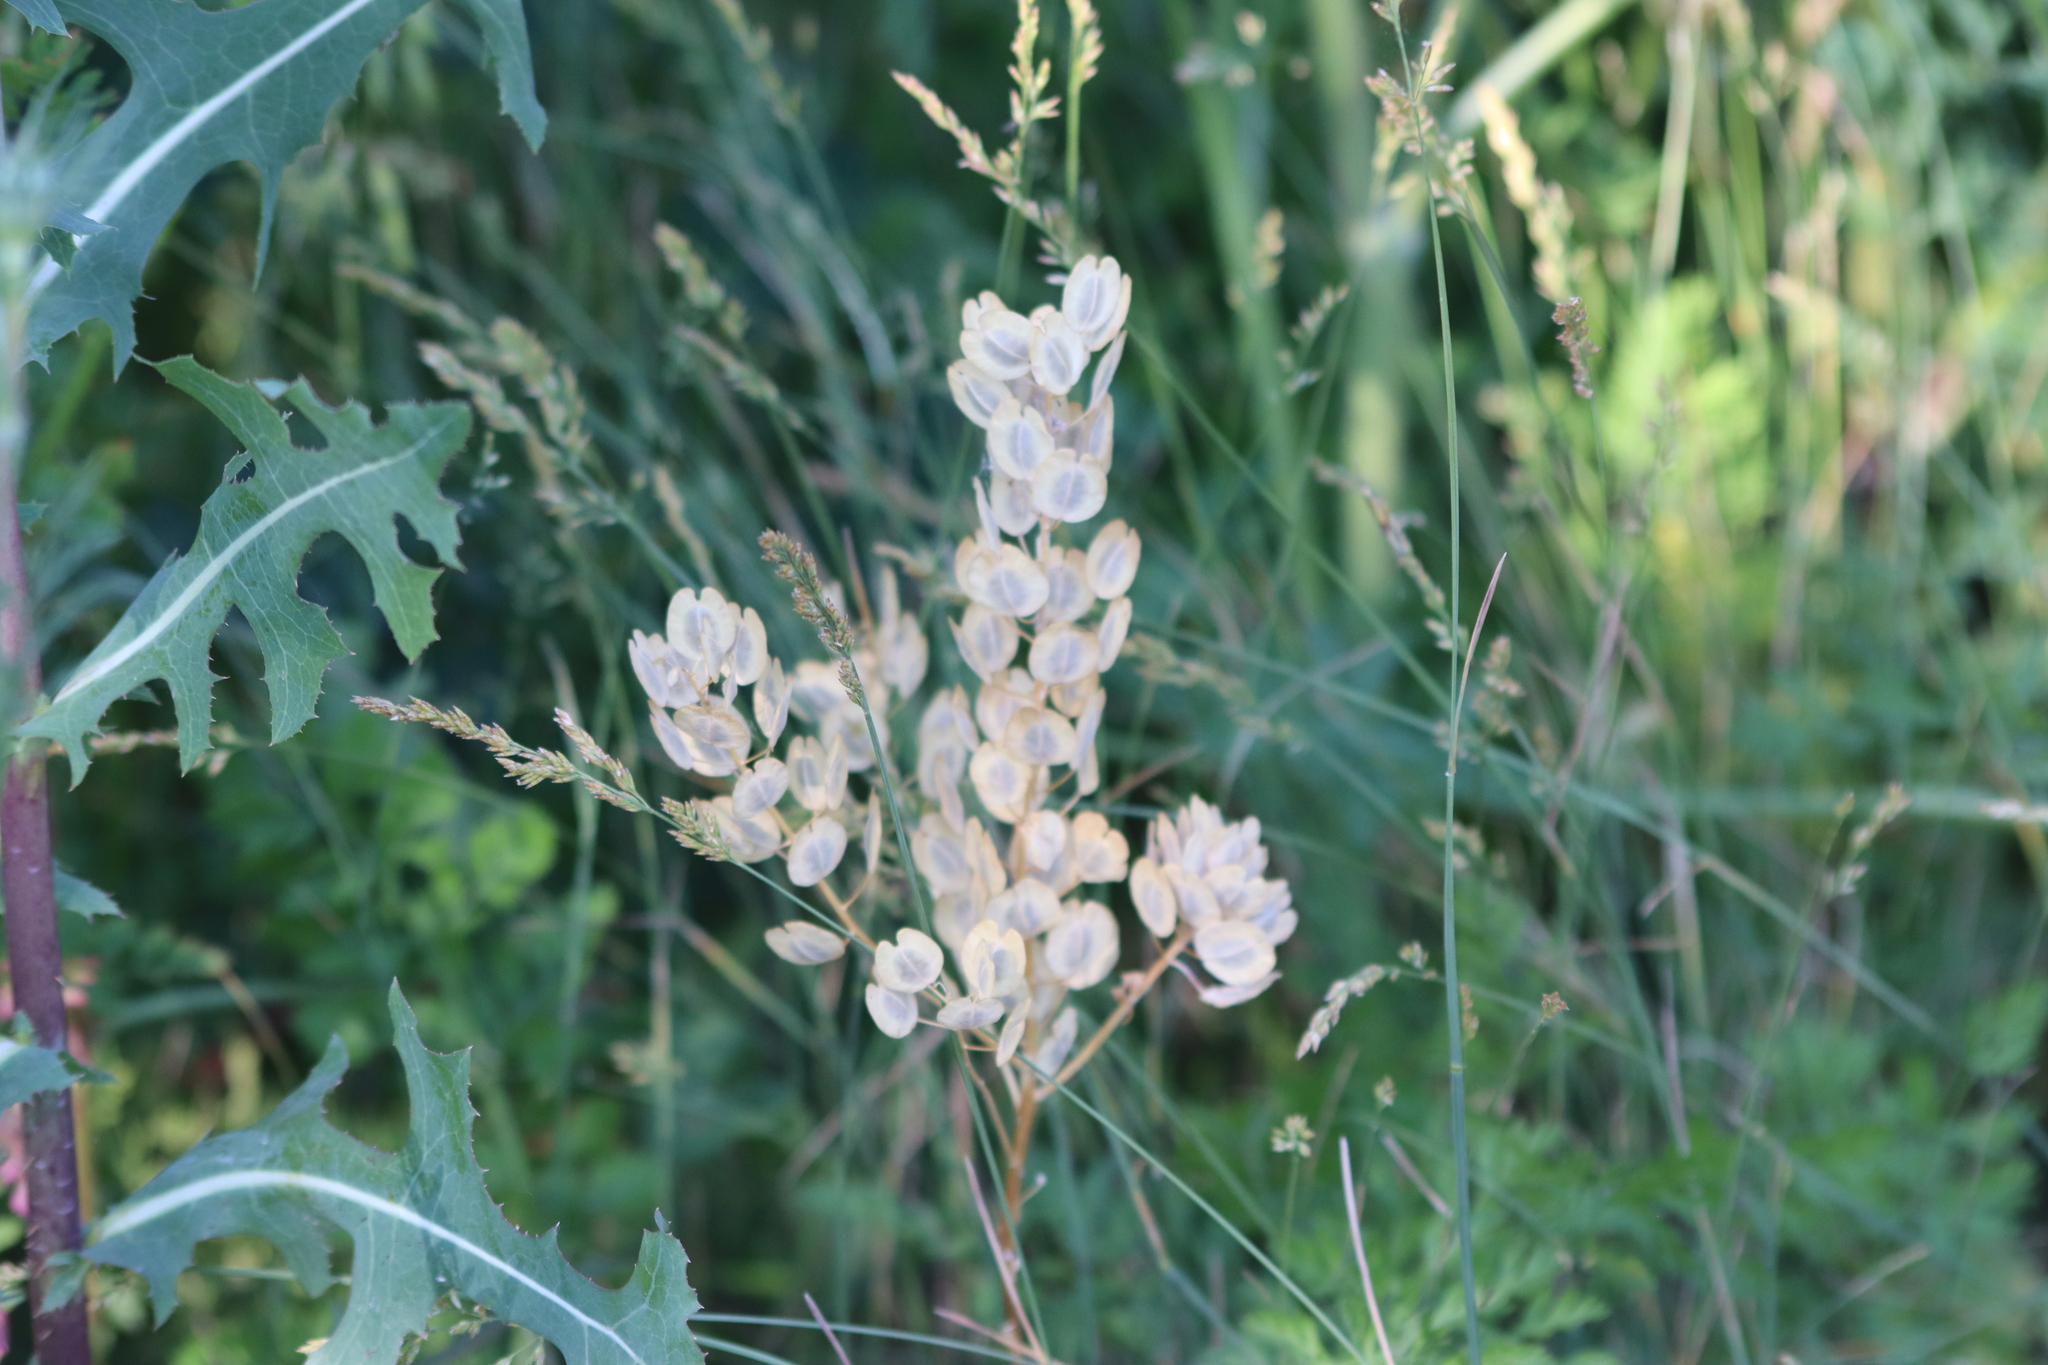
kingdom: Plantae
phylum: Tracheophyta
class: Magnoliopsida
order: Brassicales
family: Brassicaceae
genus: Thlaspi
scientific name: Thlaspi arvense
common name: Field pennycress
